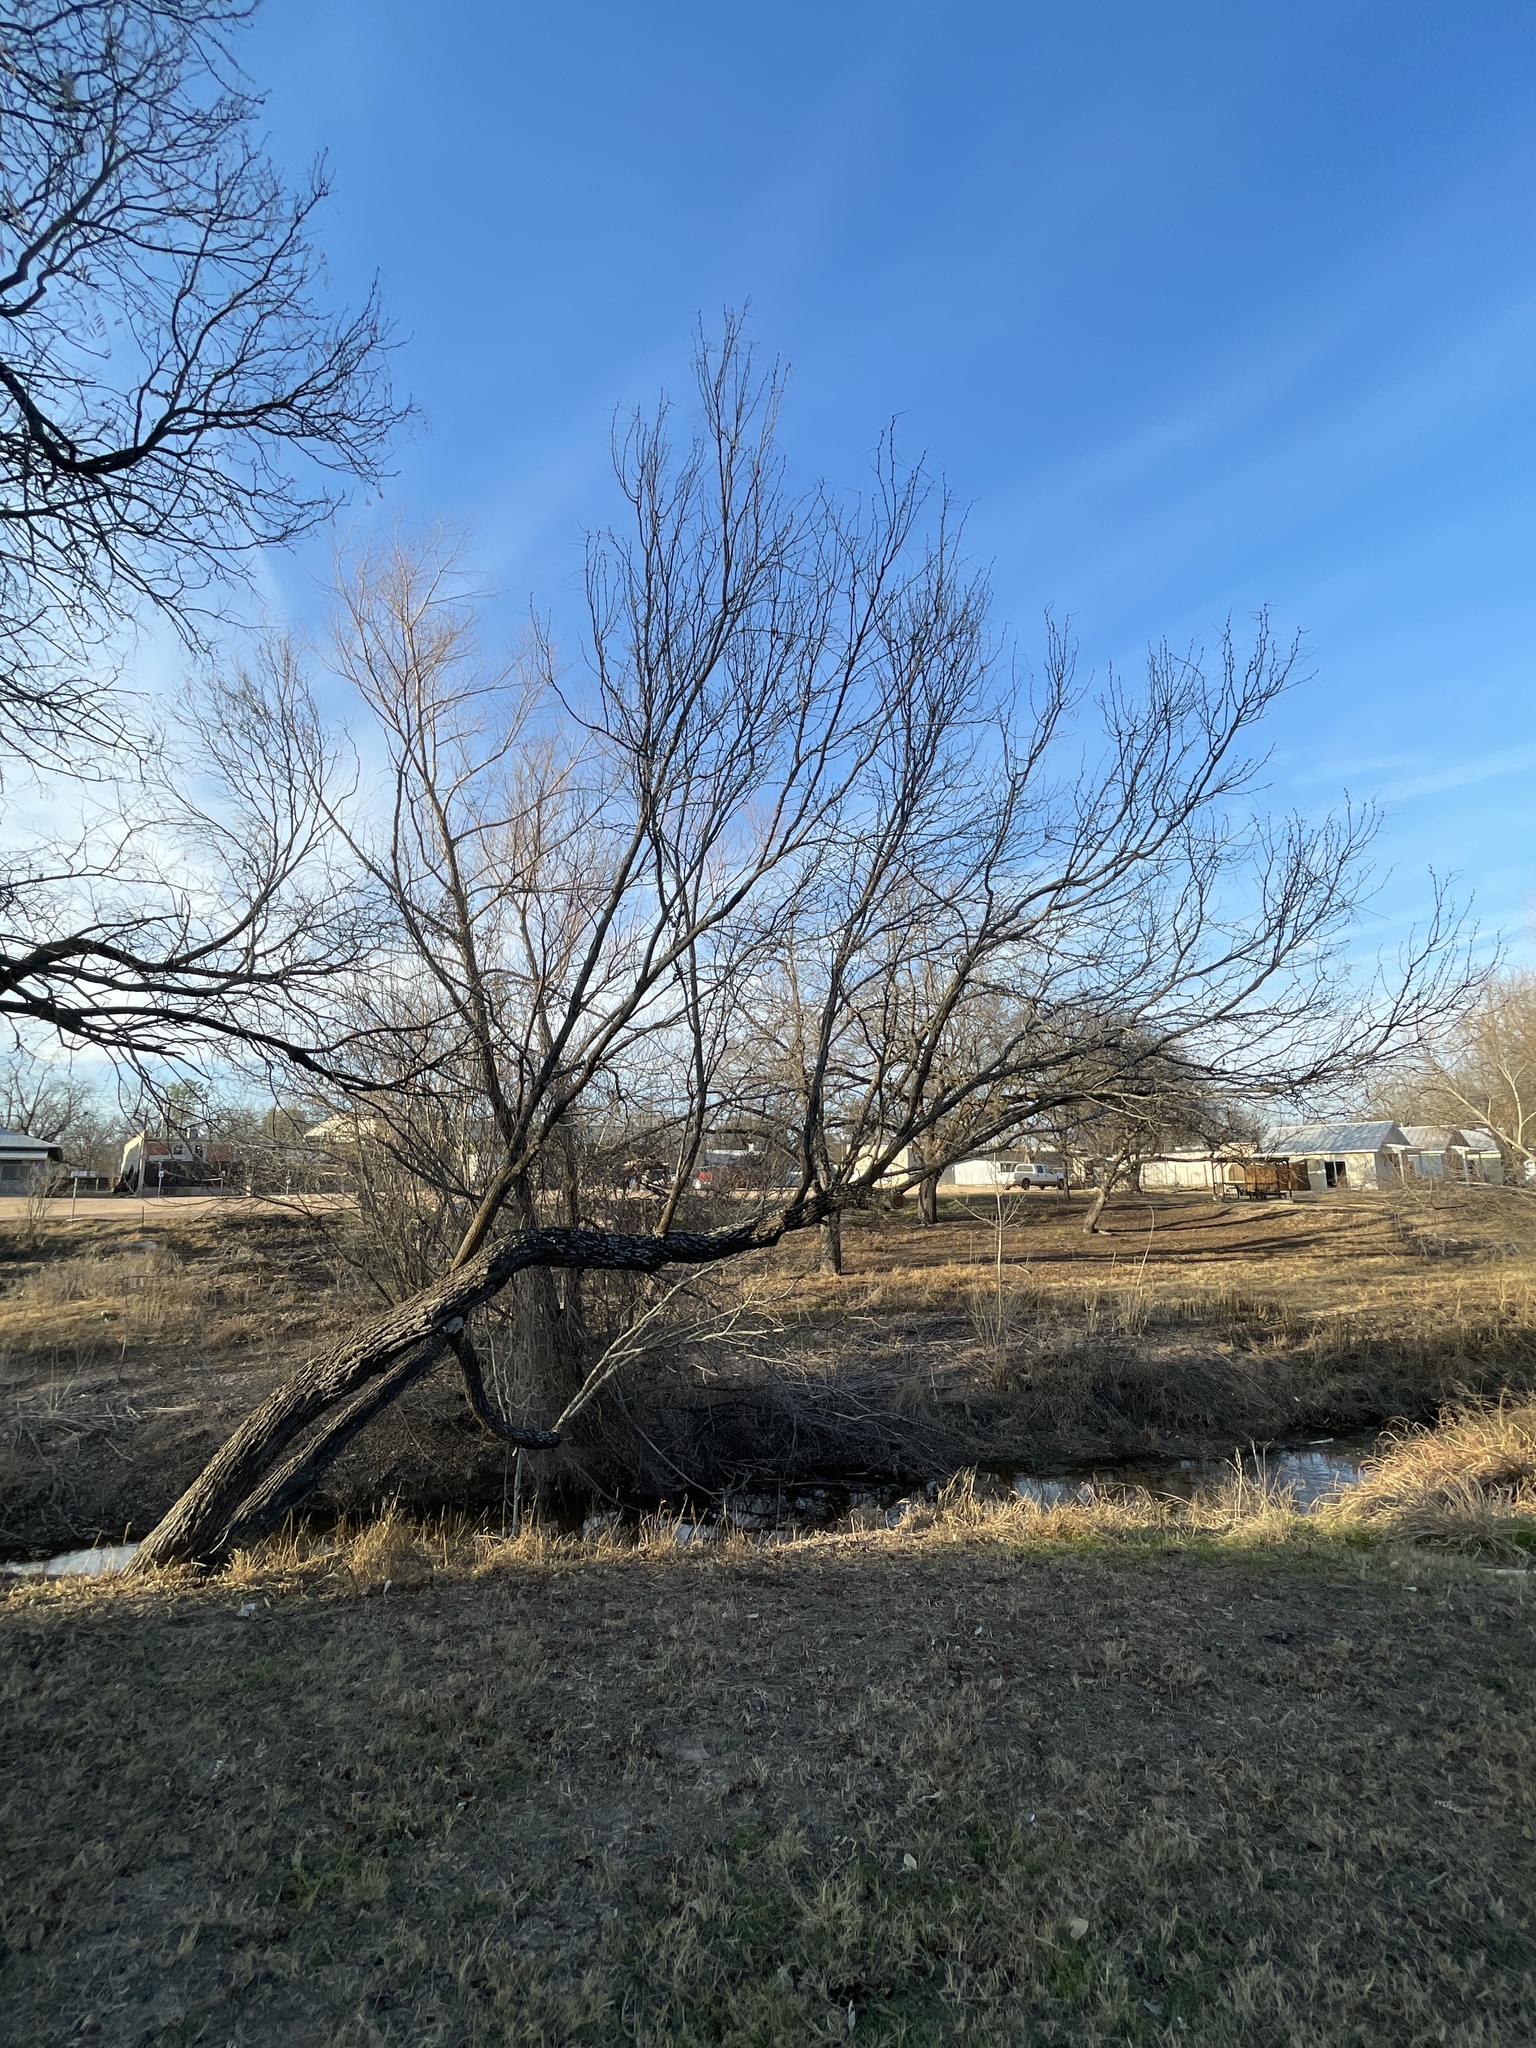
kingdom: Plantae
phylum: Tracheophyta
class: Magnoliopsida
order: Fabales
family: Fabaceae
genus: Prosopis
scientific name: Prosopis glandulosa
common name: Honey mesquite
